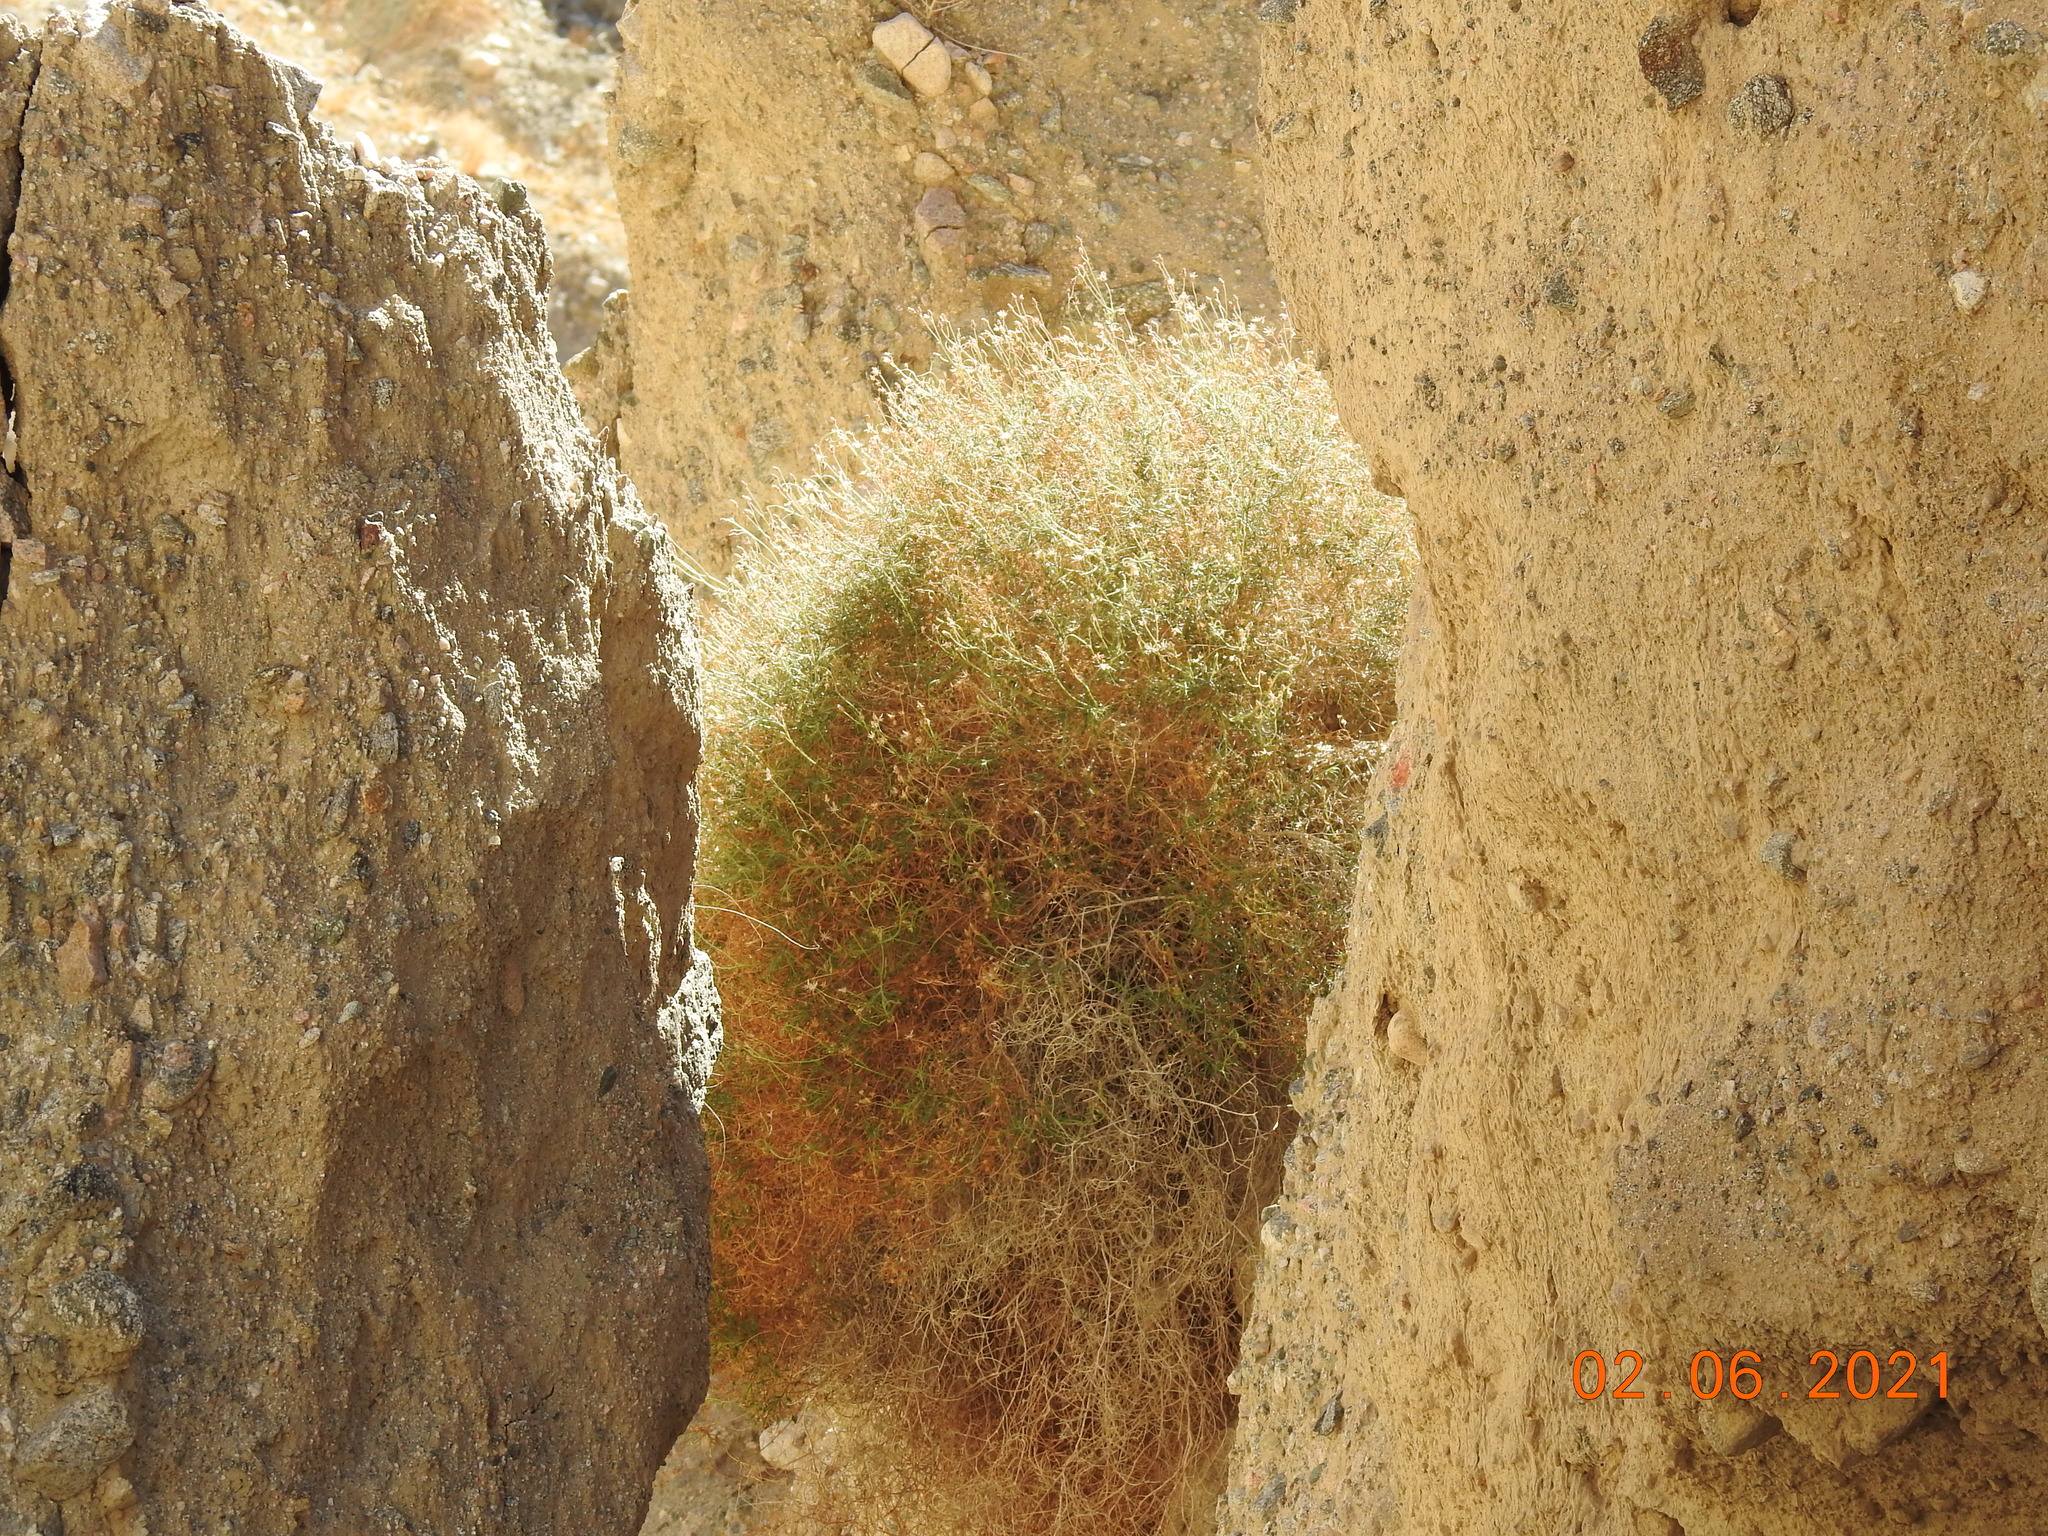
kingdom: Plantae
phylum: Tracheophyta
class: Magnoliopsida
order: Asterales
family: Asteraceae
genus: Pleurocoronis
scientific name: Pleurocoronis pluriseta
